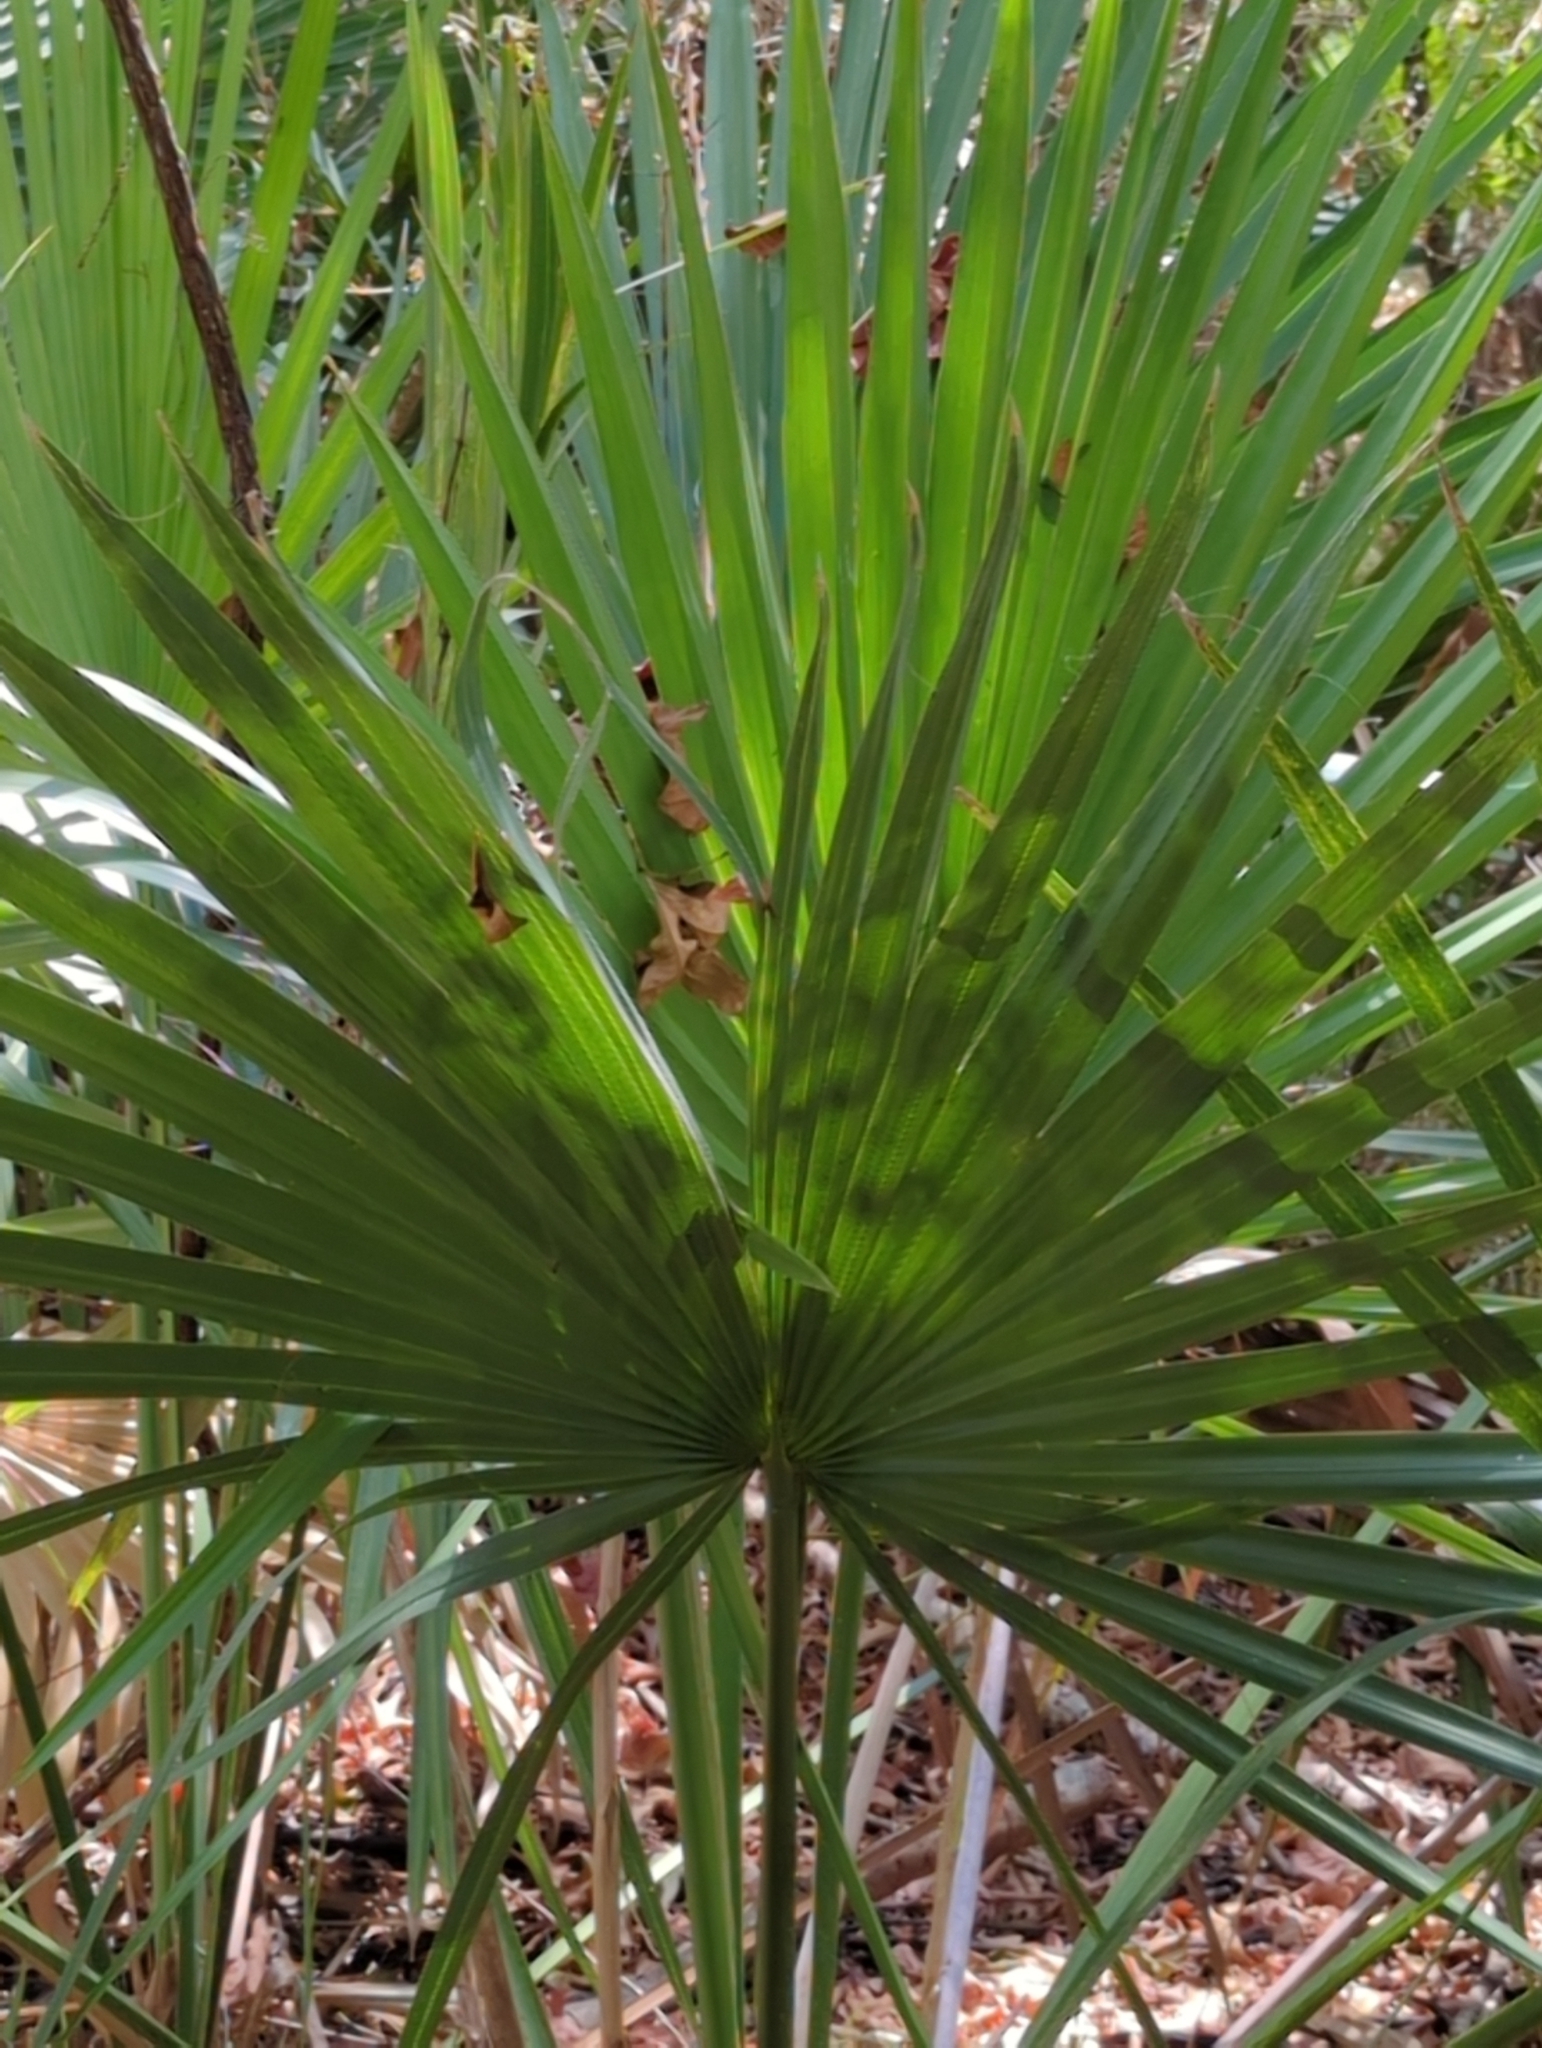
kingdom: Plantae
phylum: Tracheophyta
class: Liliopsida
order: Arecales
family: Arecaceae
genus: Sabal
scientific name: Sabal minor
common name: Dwarf palmetto
